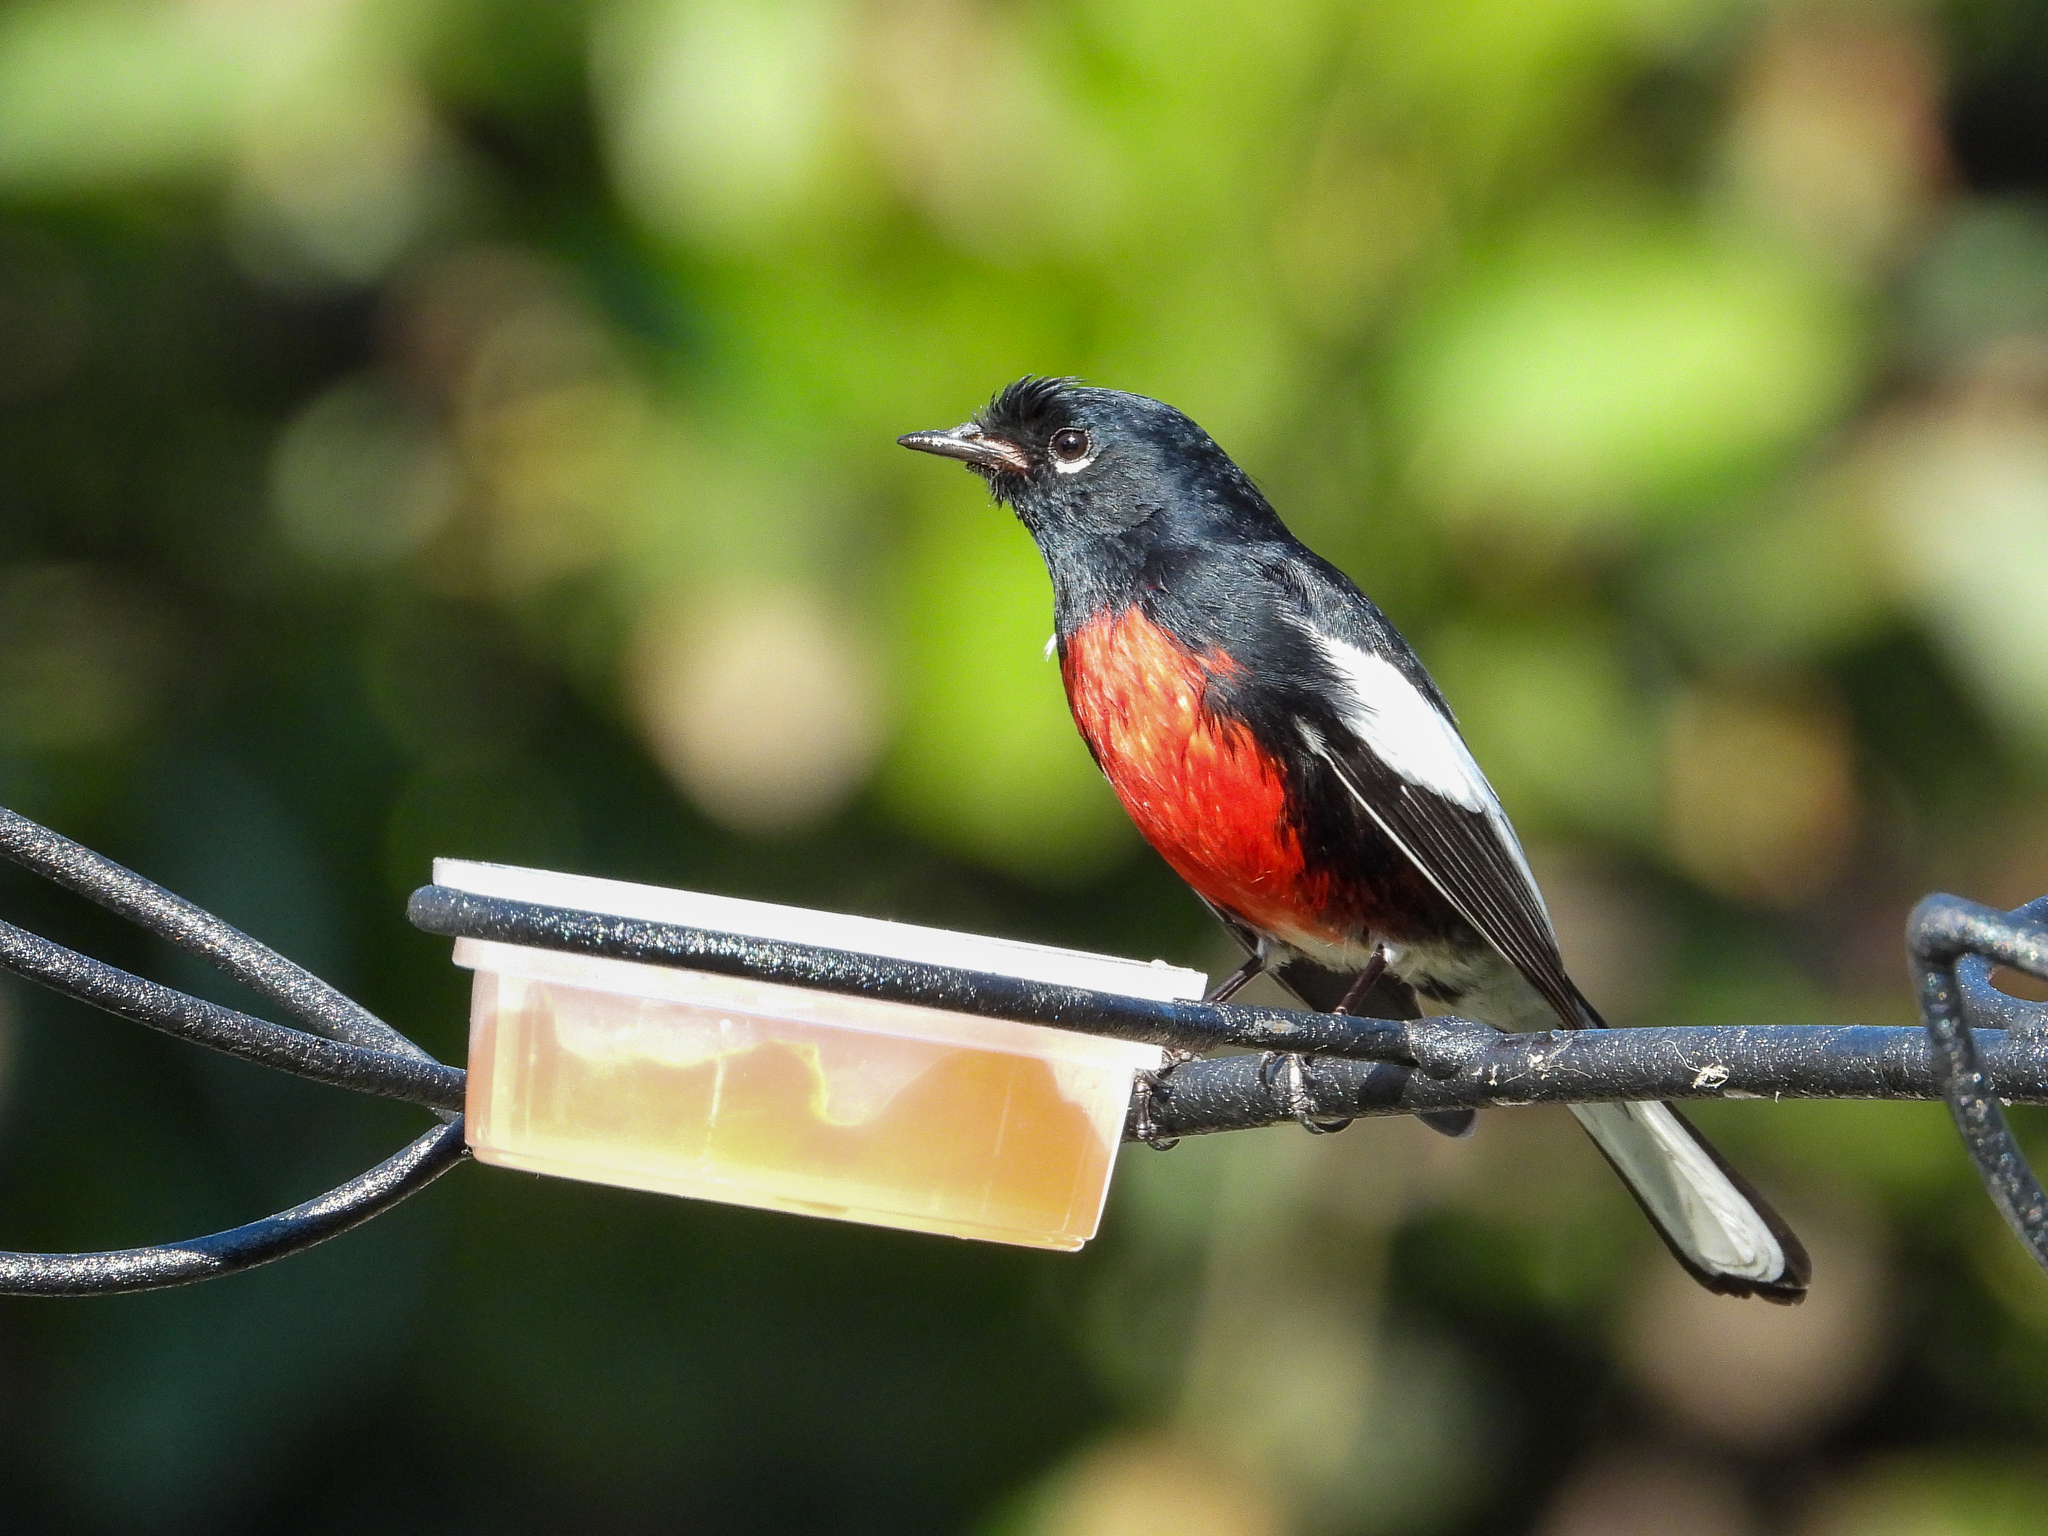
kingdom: Animalia
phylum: Chordata
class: Aves
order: Passeriformes
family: Parulidae
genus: Myioborus
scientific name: Myioborus pictus
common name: Painted whitestart
